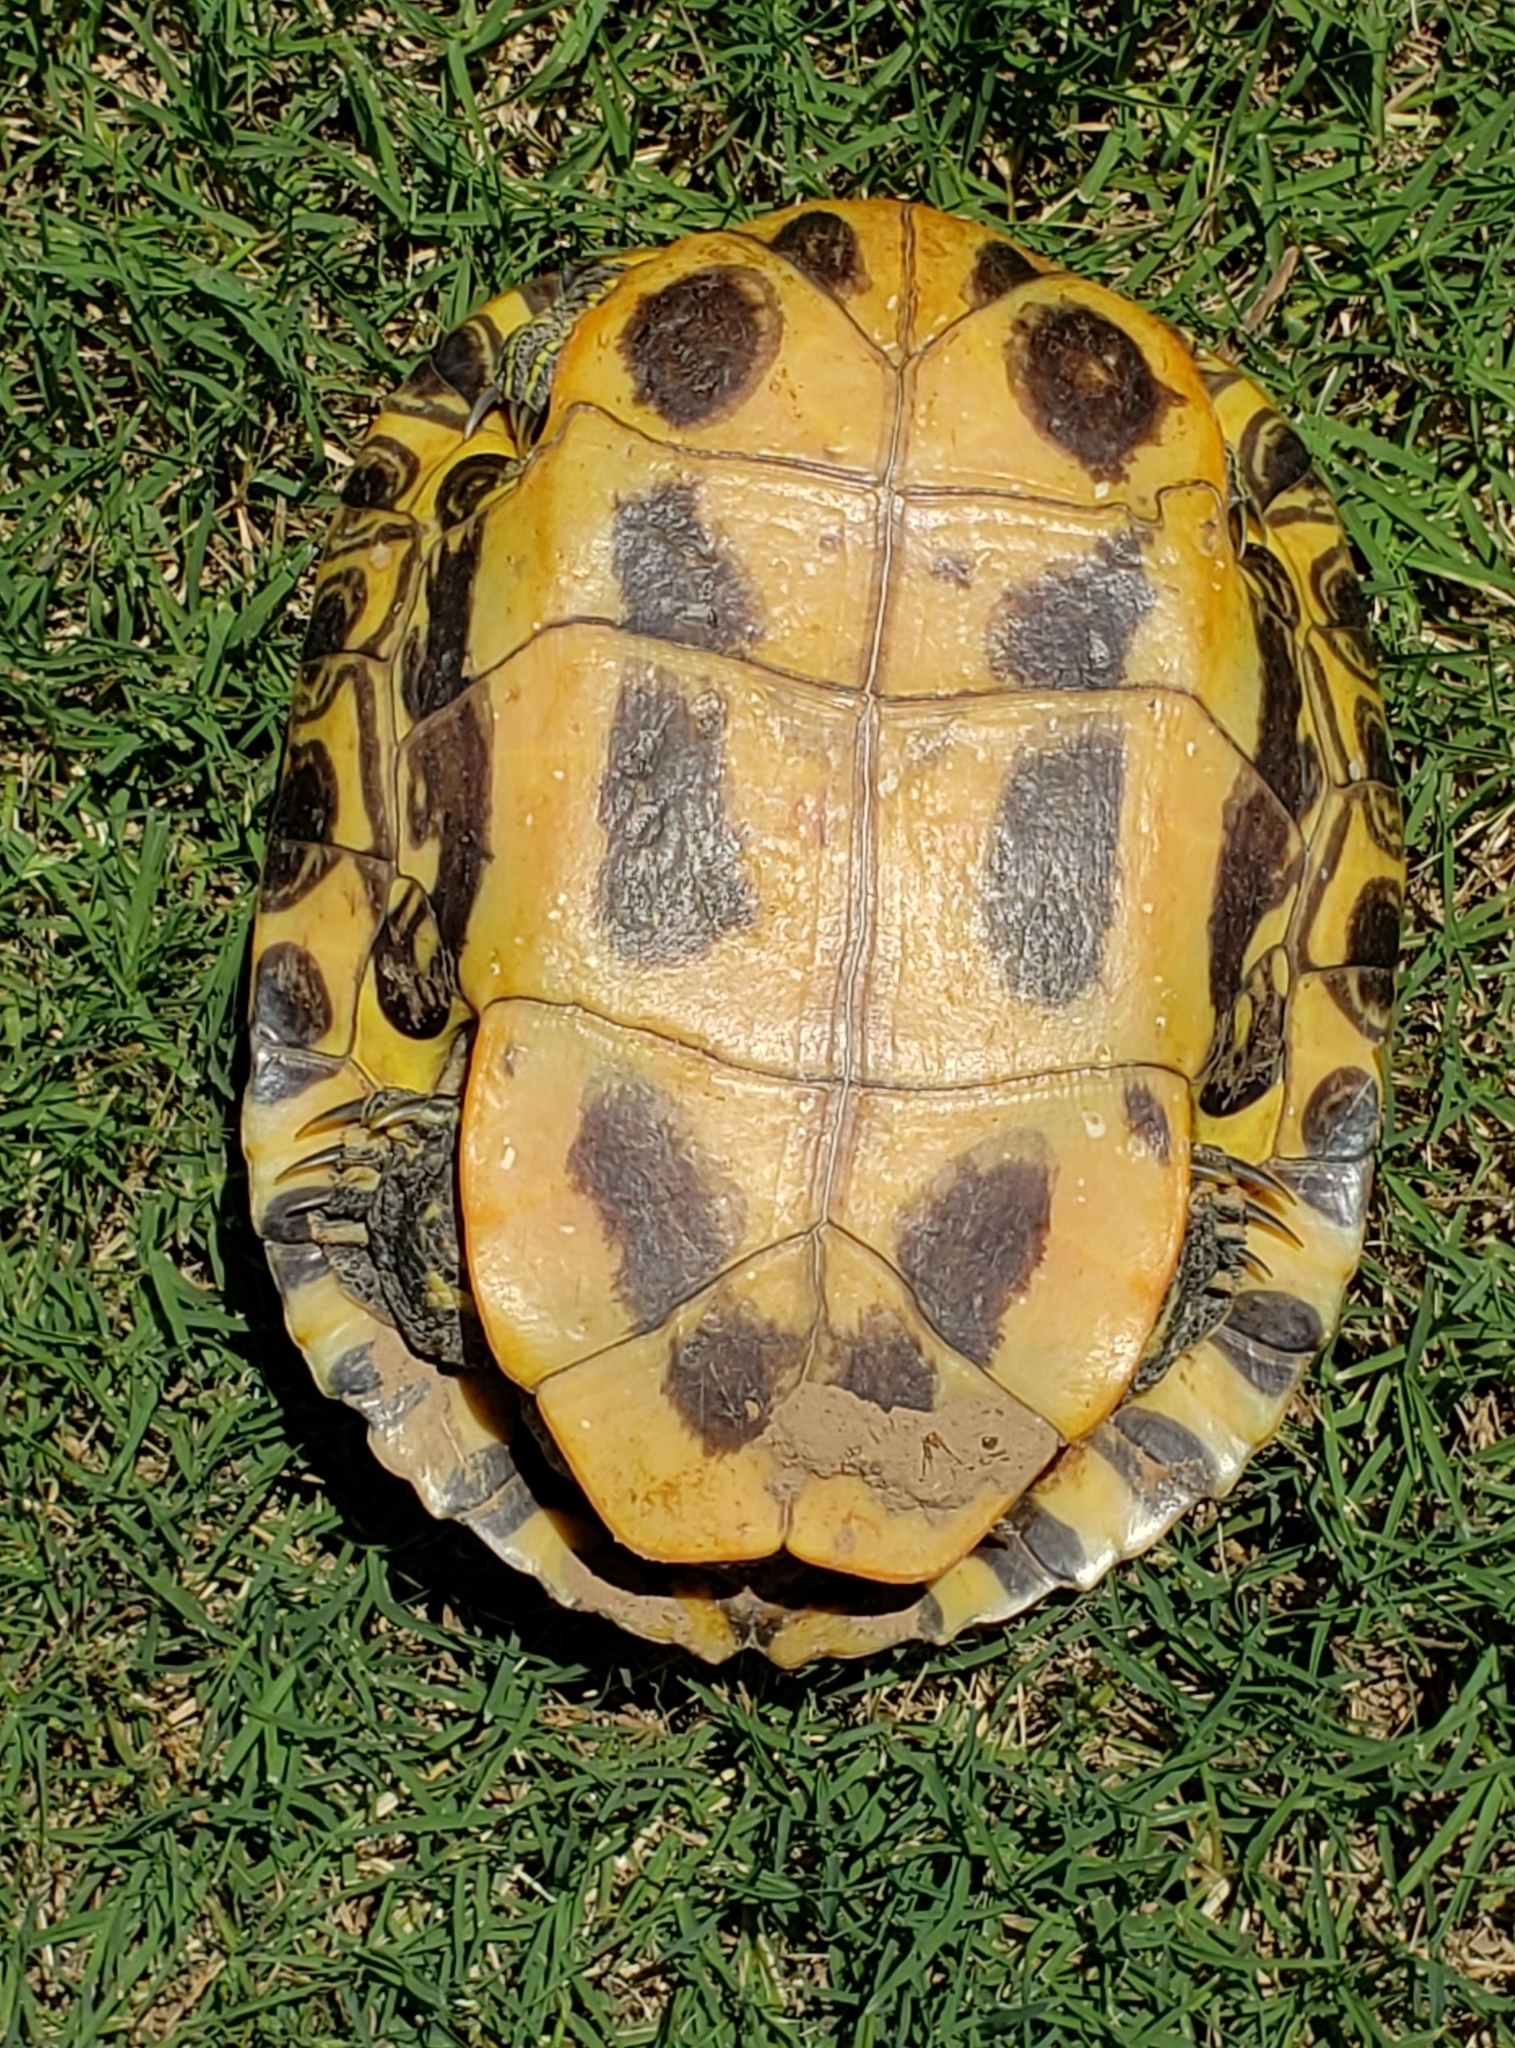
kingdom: Animalia
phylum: Chordata
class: Testudines
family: Emydidae
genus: Trachemys
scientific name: Trachemys scripta
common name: Slider
